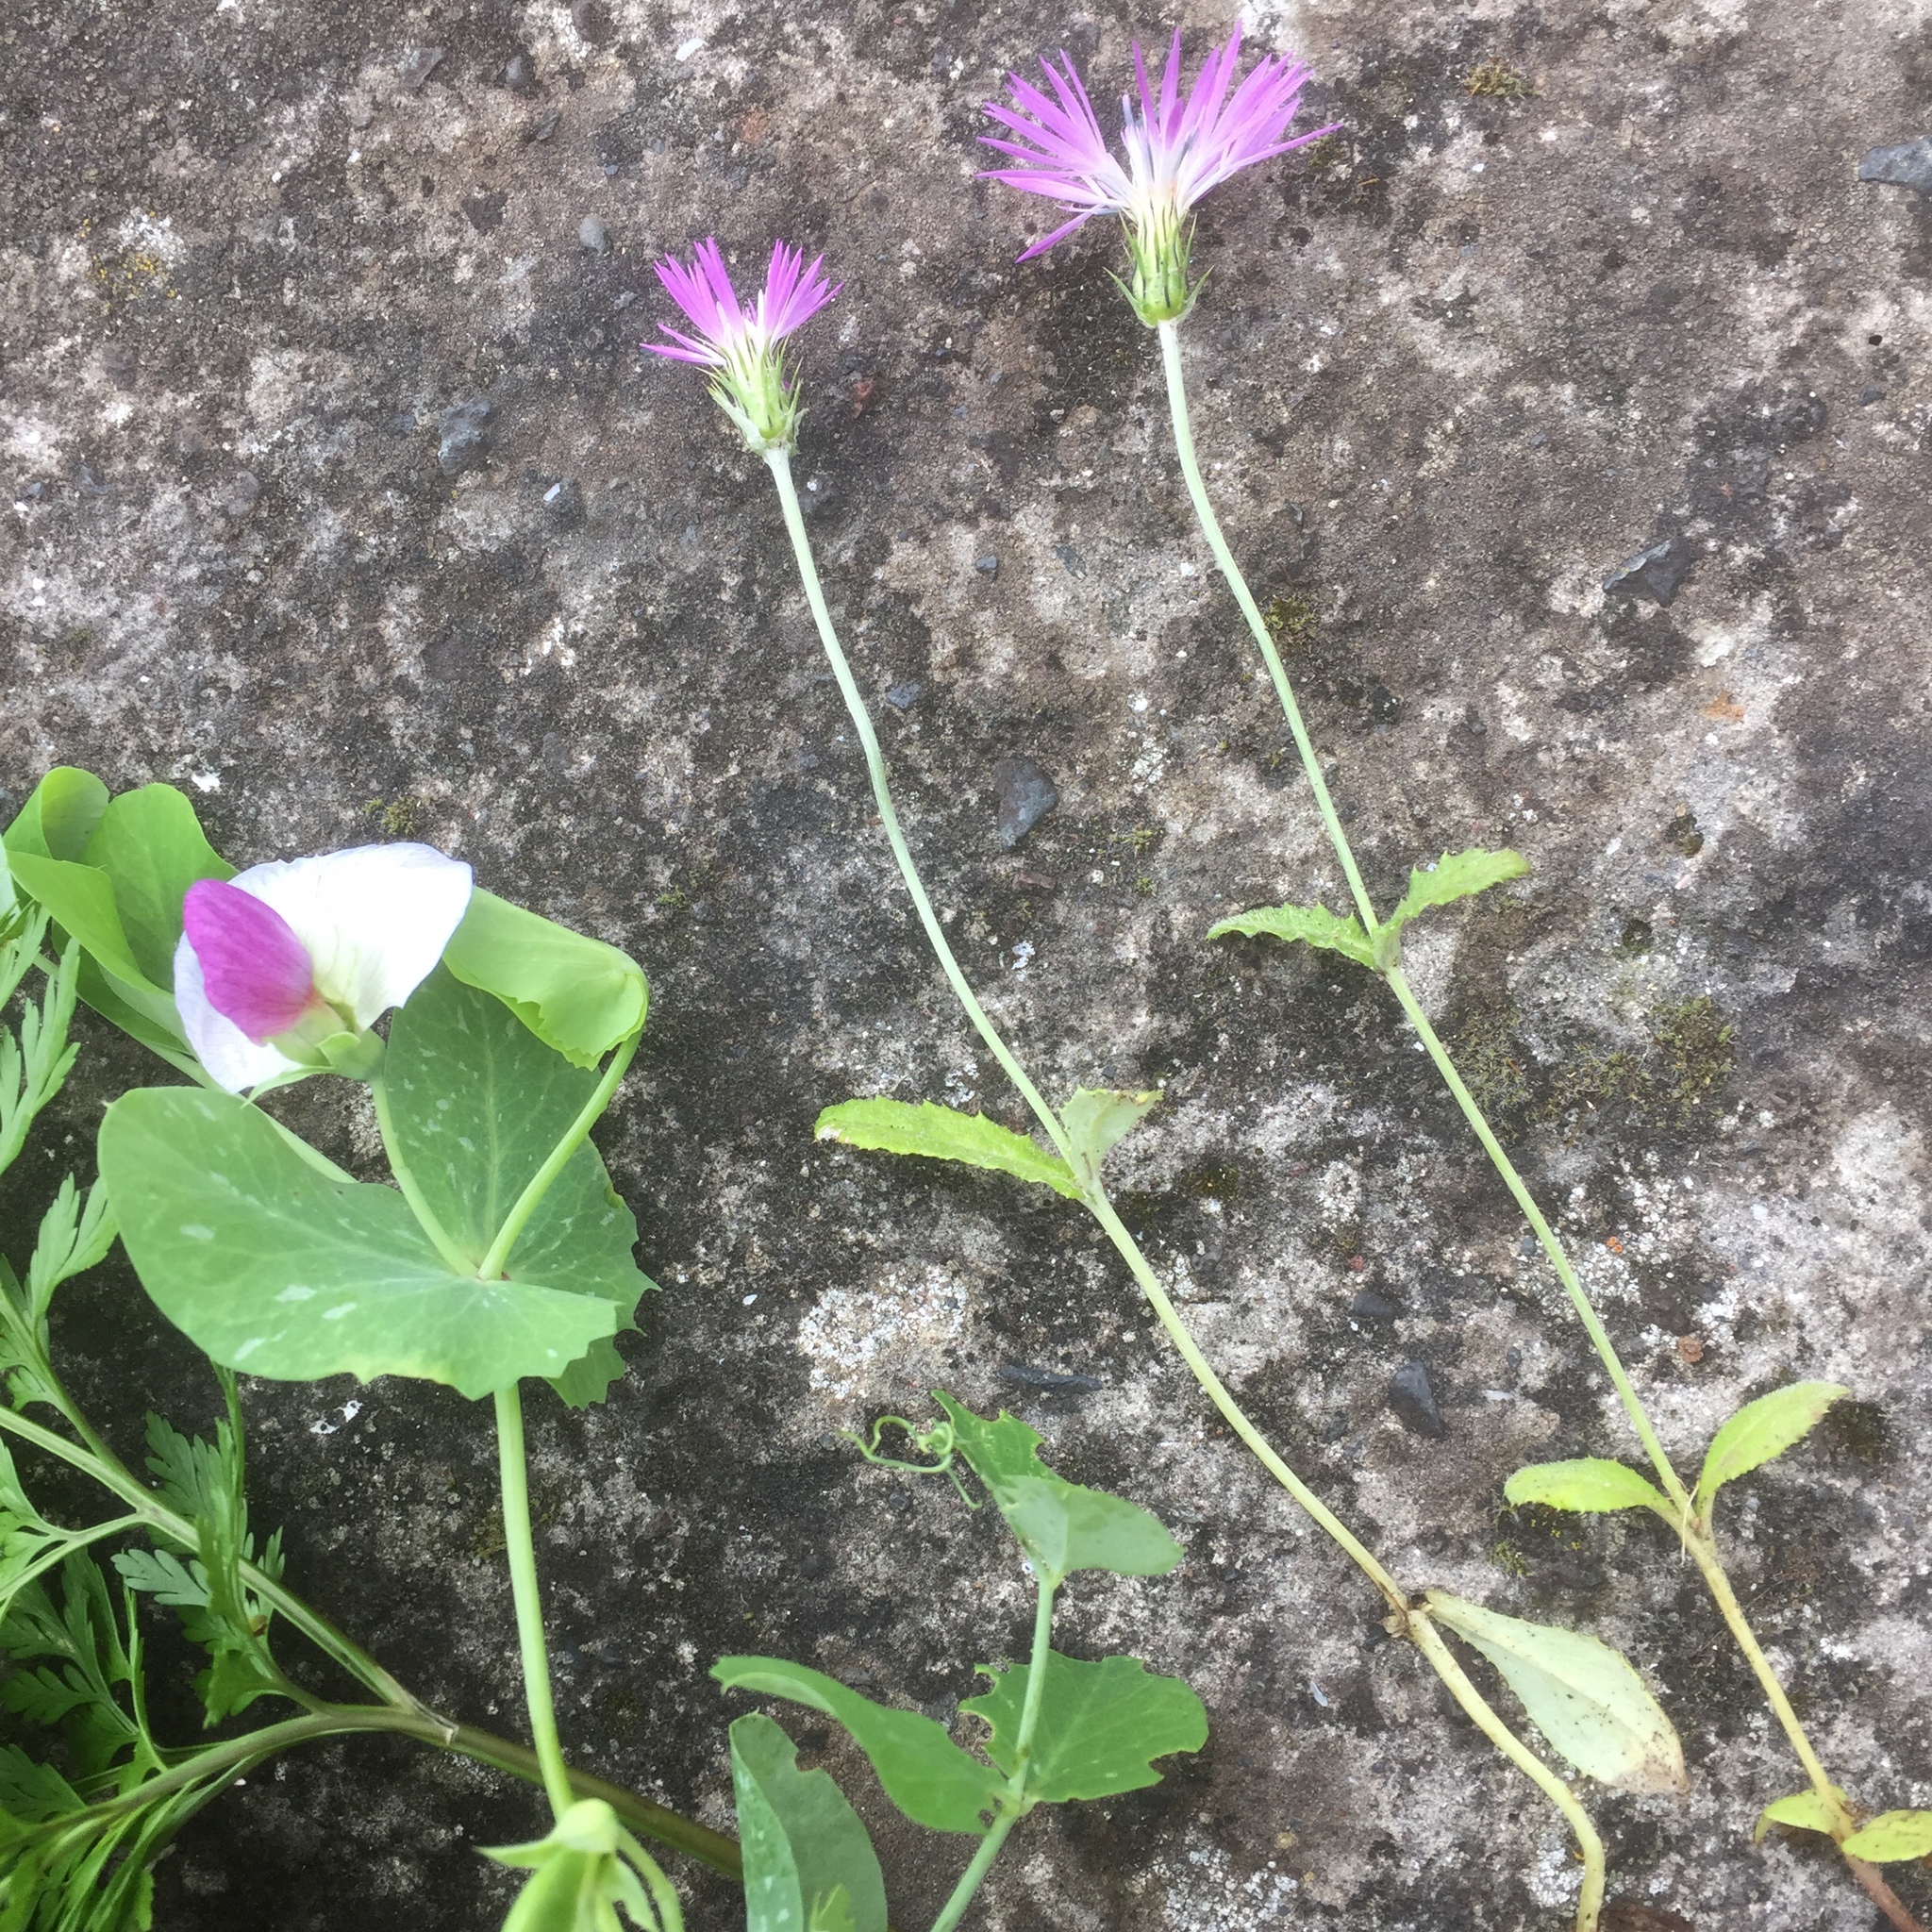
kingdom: Plantae
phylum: Tracheophyta
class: Magnoliopsida
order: Fabales
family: Fabaceae
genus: Lathyrus
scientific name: Lathyrus oleraceus
